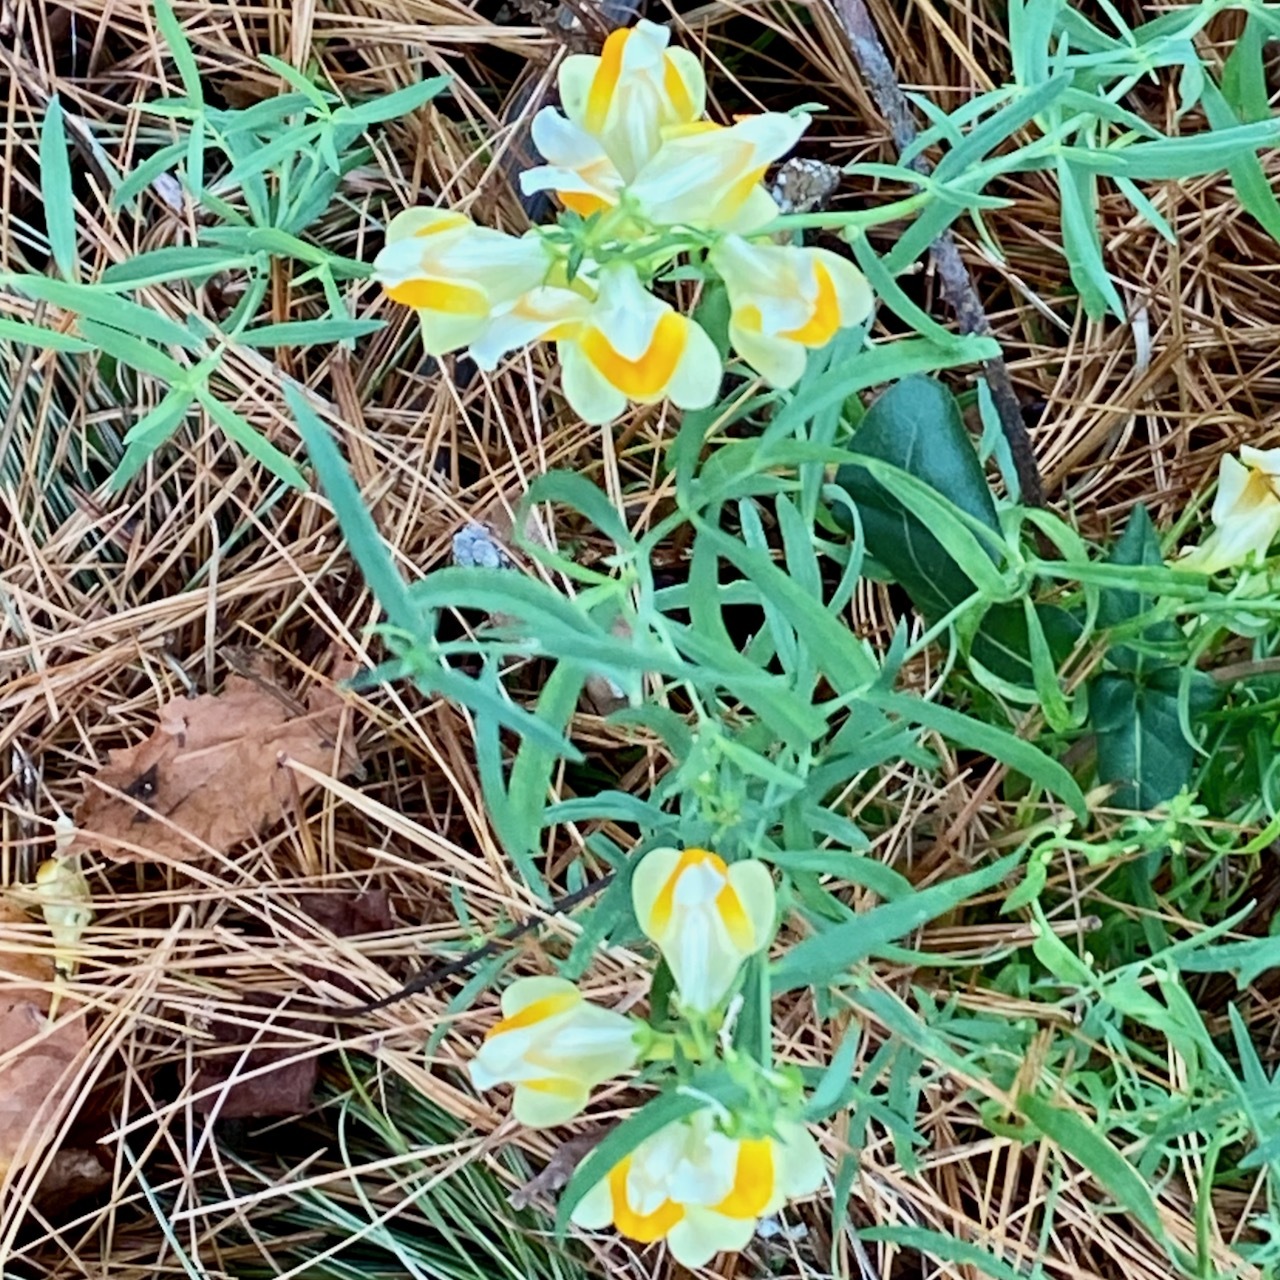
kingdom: Plantae
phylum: Tracheophyta
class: Magnoliopsida
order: Lamiales
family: Plantaginaceae
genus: Linaria
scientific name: Linaria vulgaris
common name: Butter and eggs
